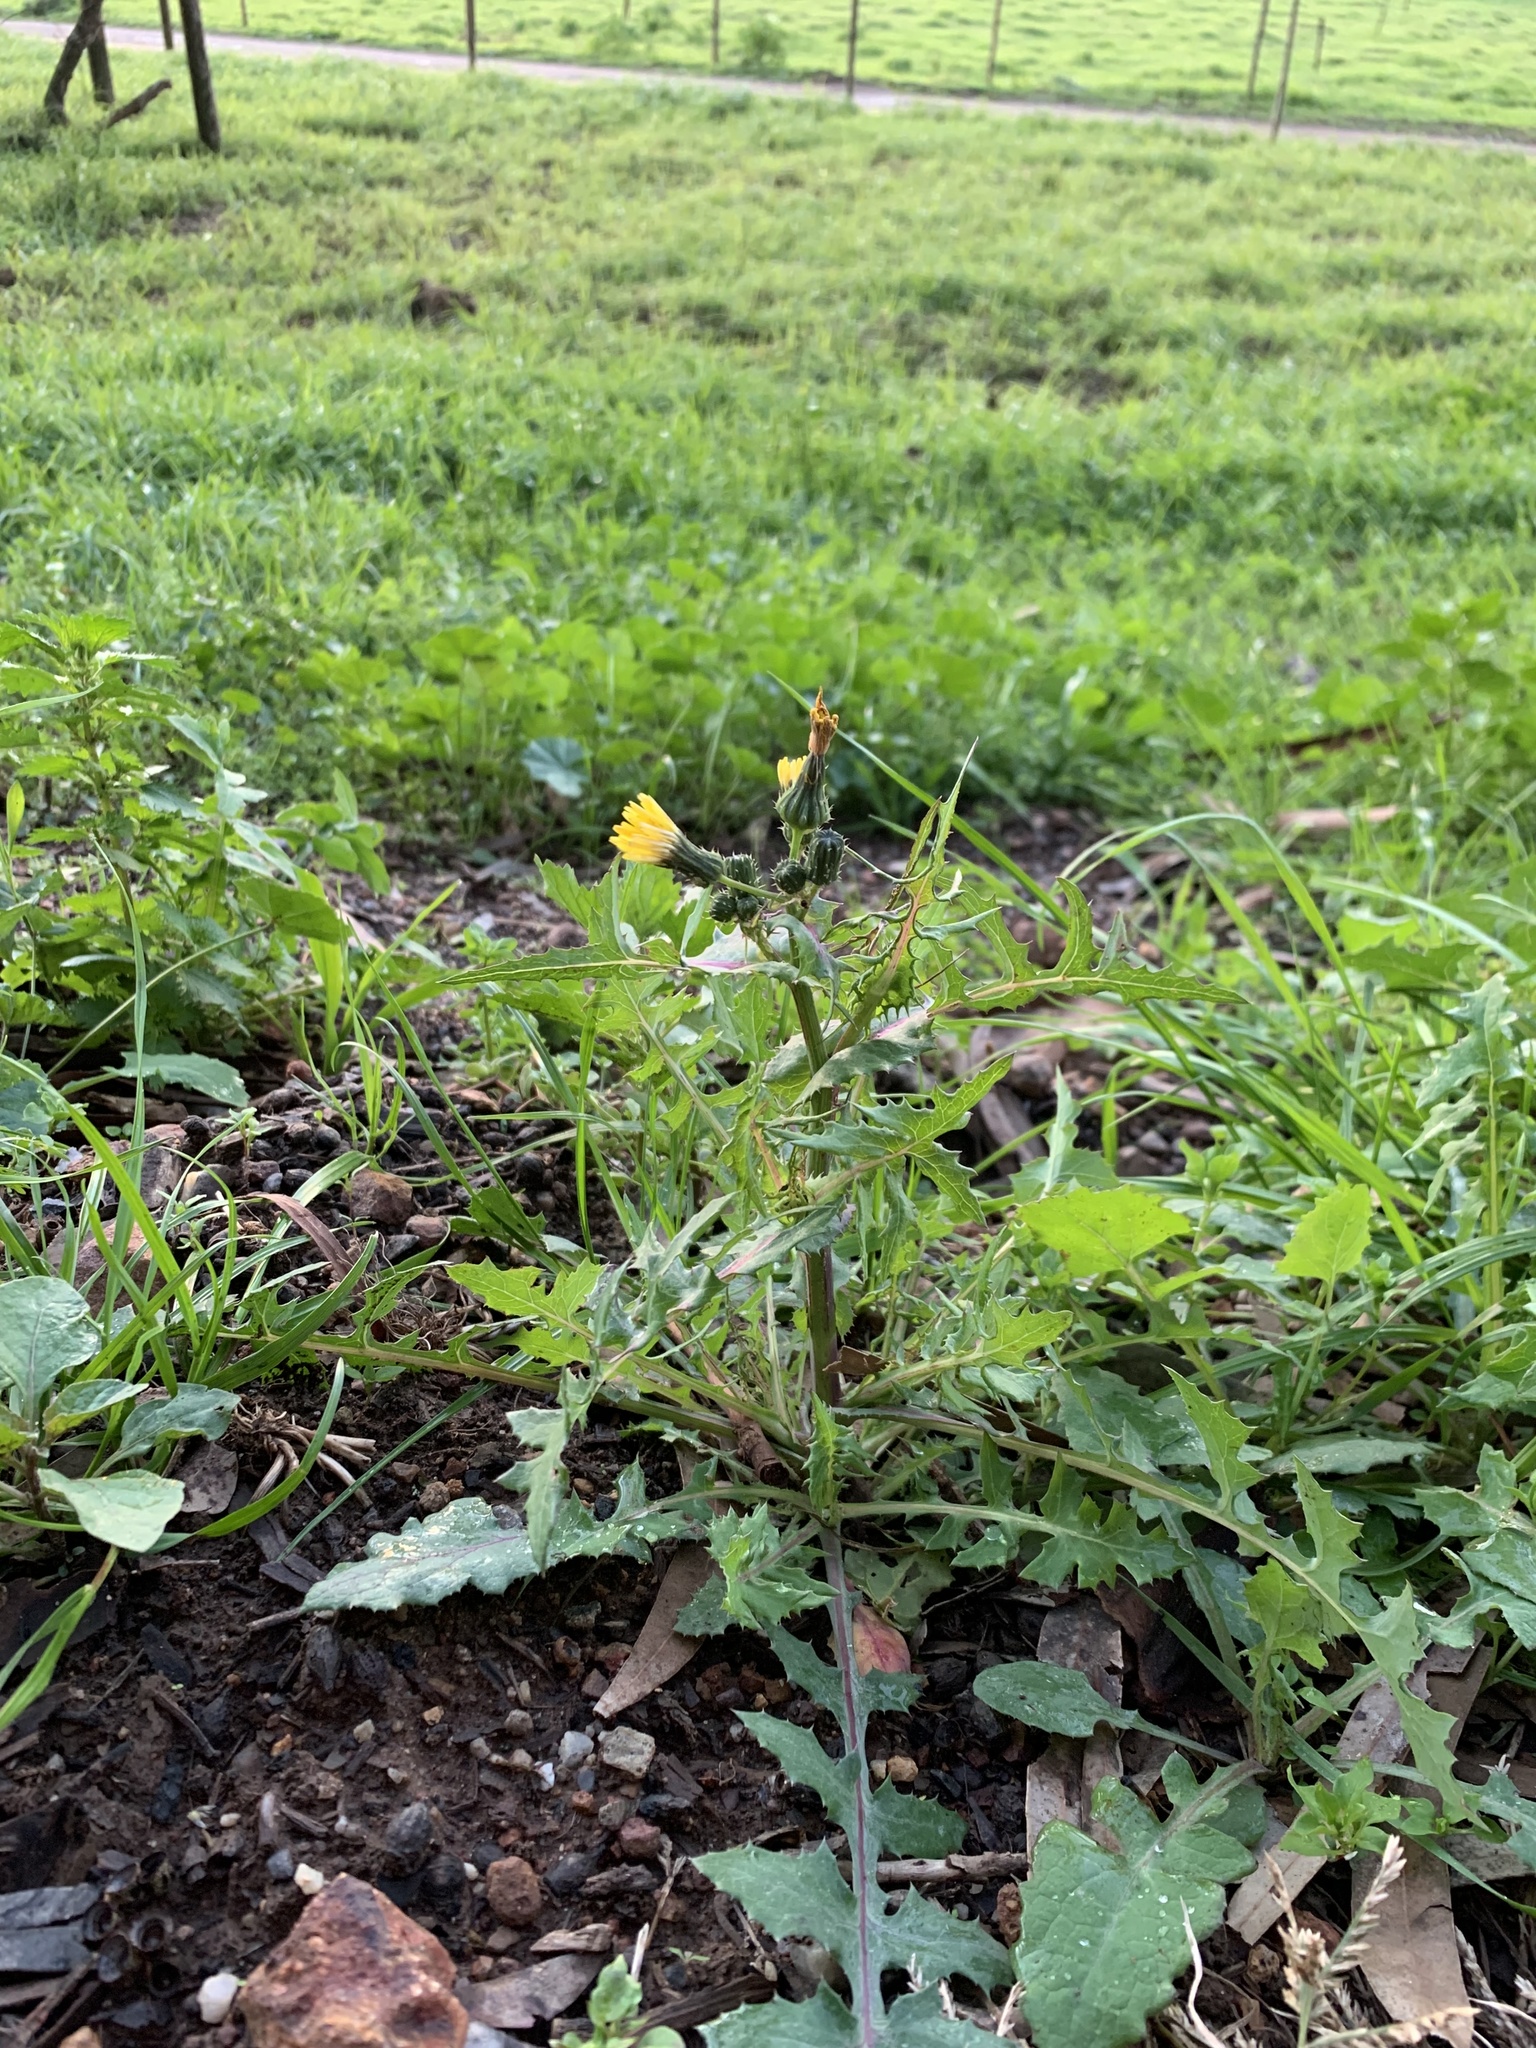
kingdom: Plantae
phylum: Tracheophyta
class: Magnoliopsida
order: Asterales
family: Asteraceae
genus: Sonchus
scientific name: Sonchus oleraceus
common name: Common sowthistle
